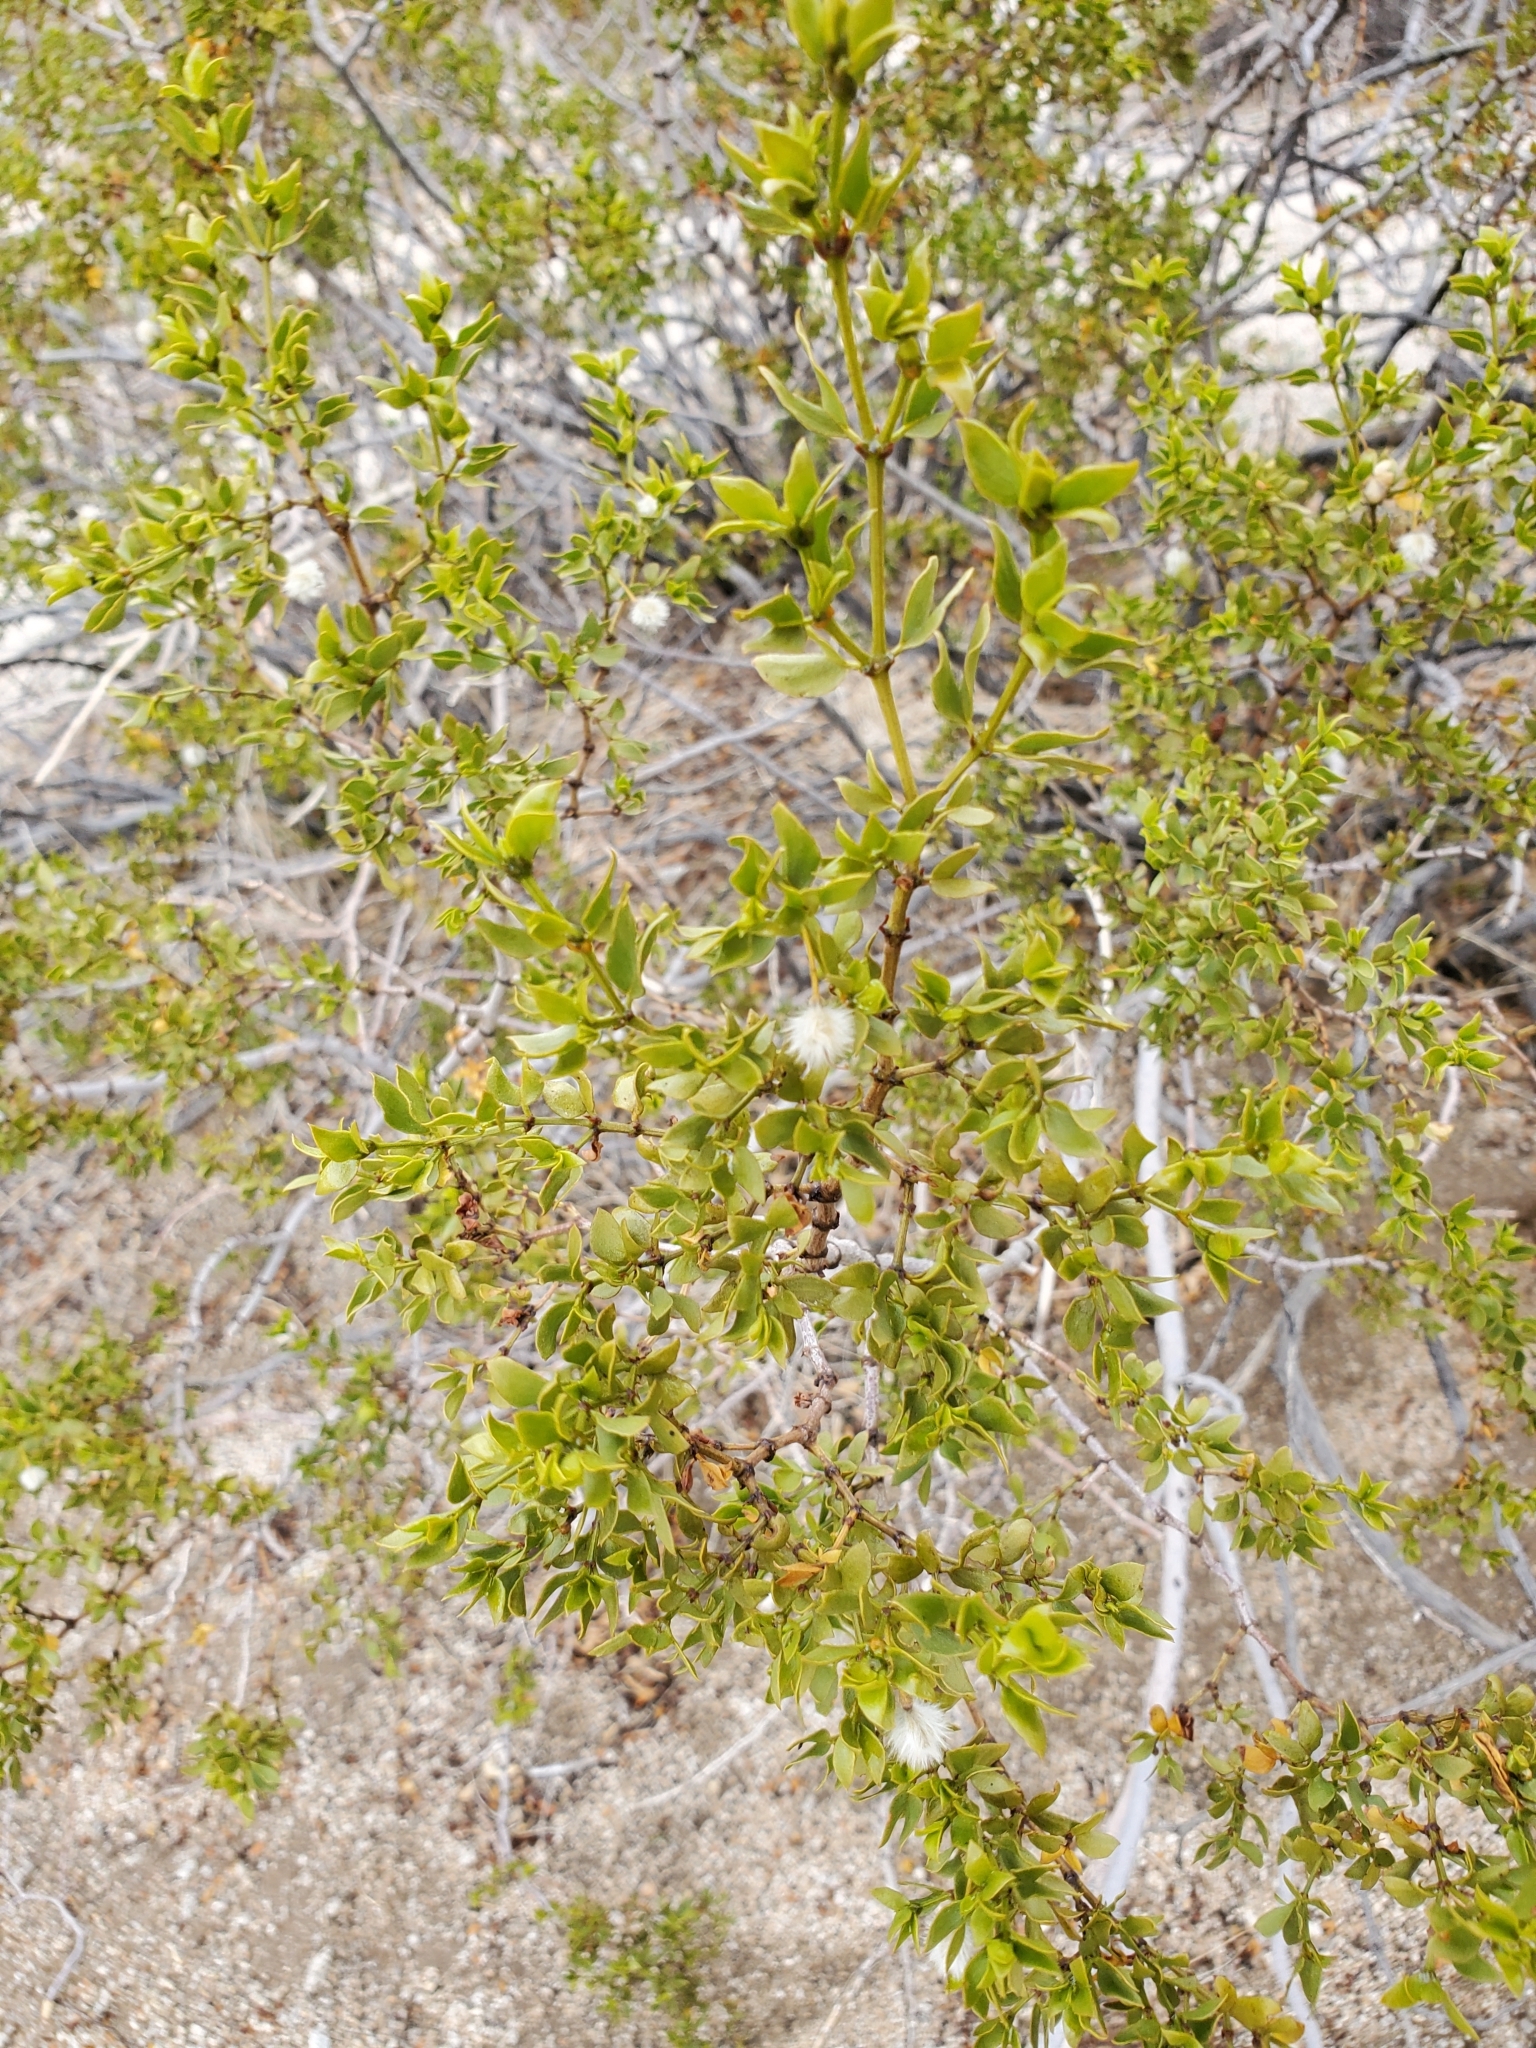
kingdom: Plantae
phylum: Tracheophyta
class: Magnoliopsida
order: Zygophyllales
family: Zygophyllaceae
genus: Larrea
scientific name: Larrea tridentata
